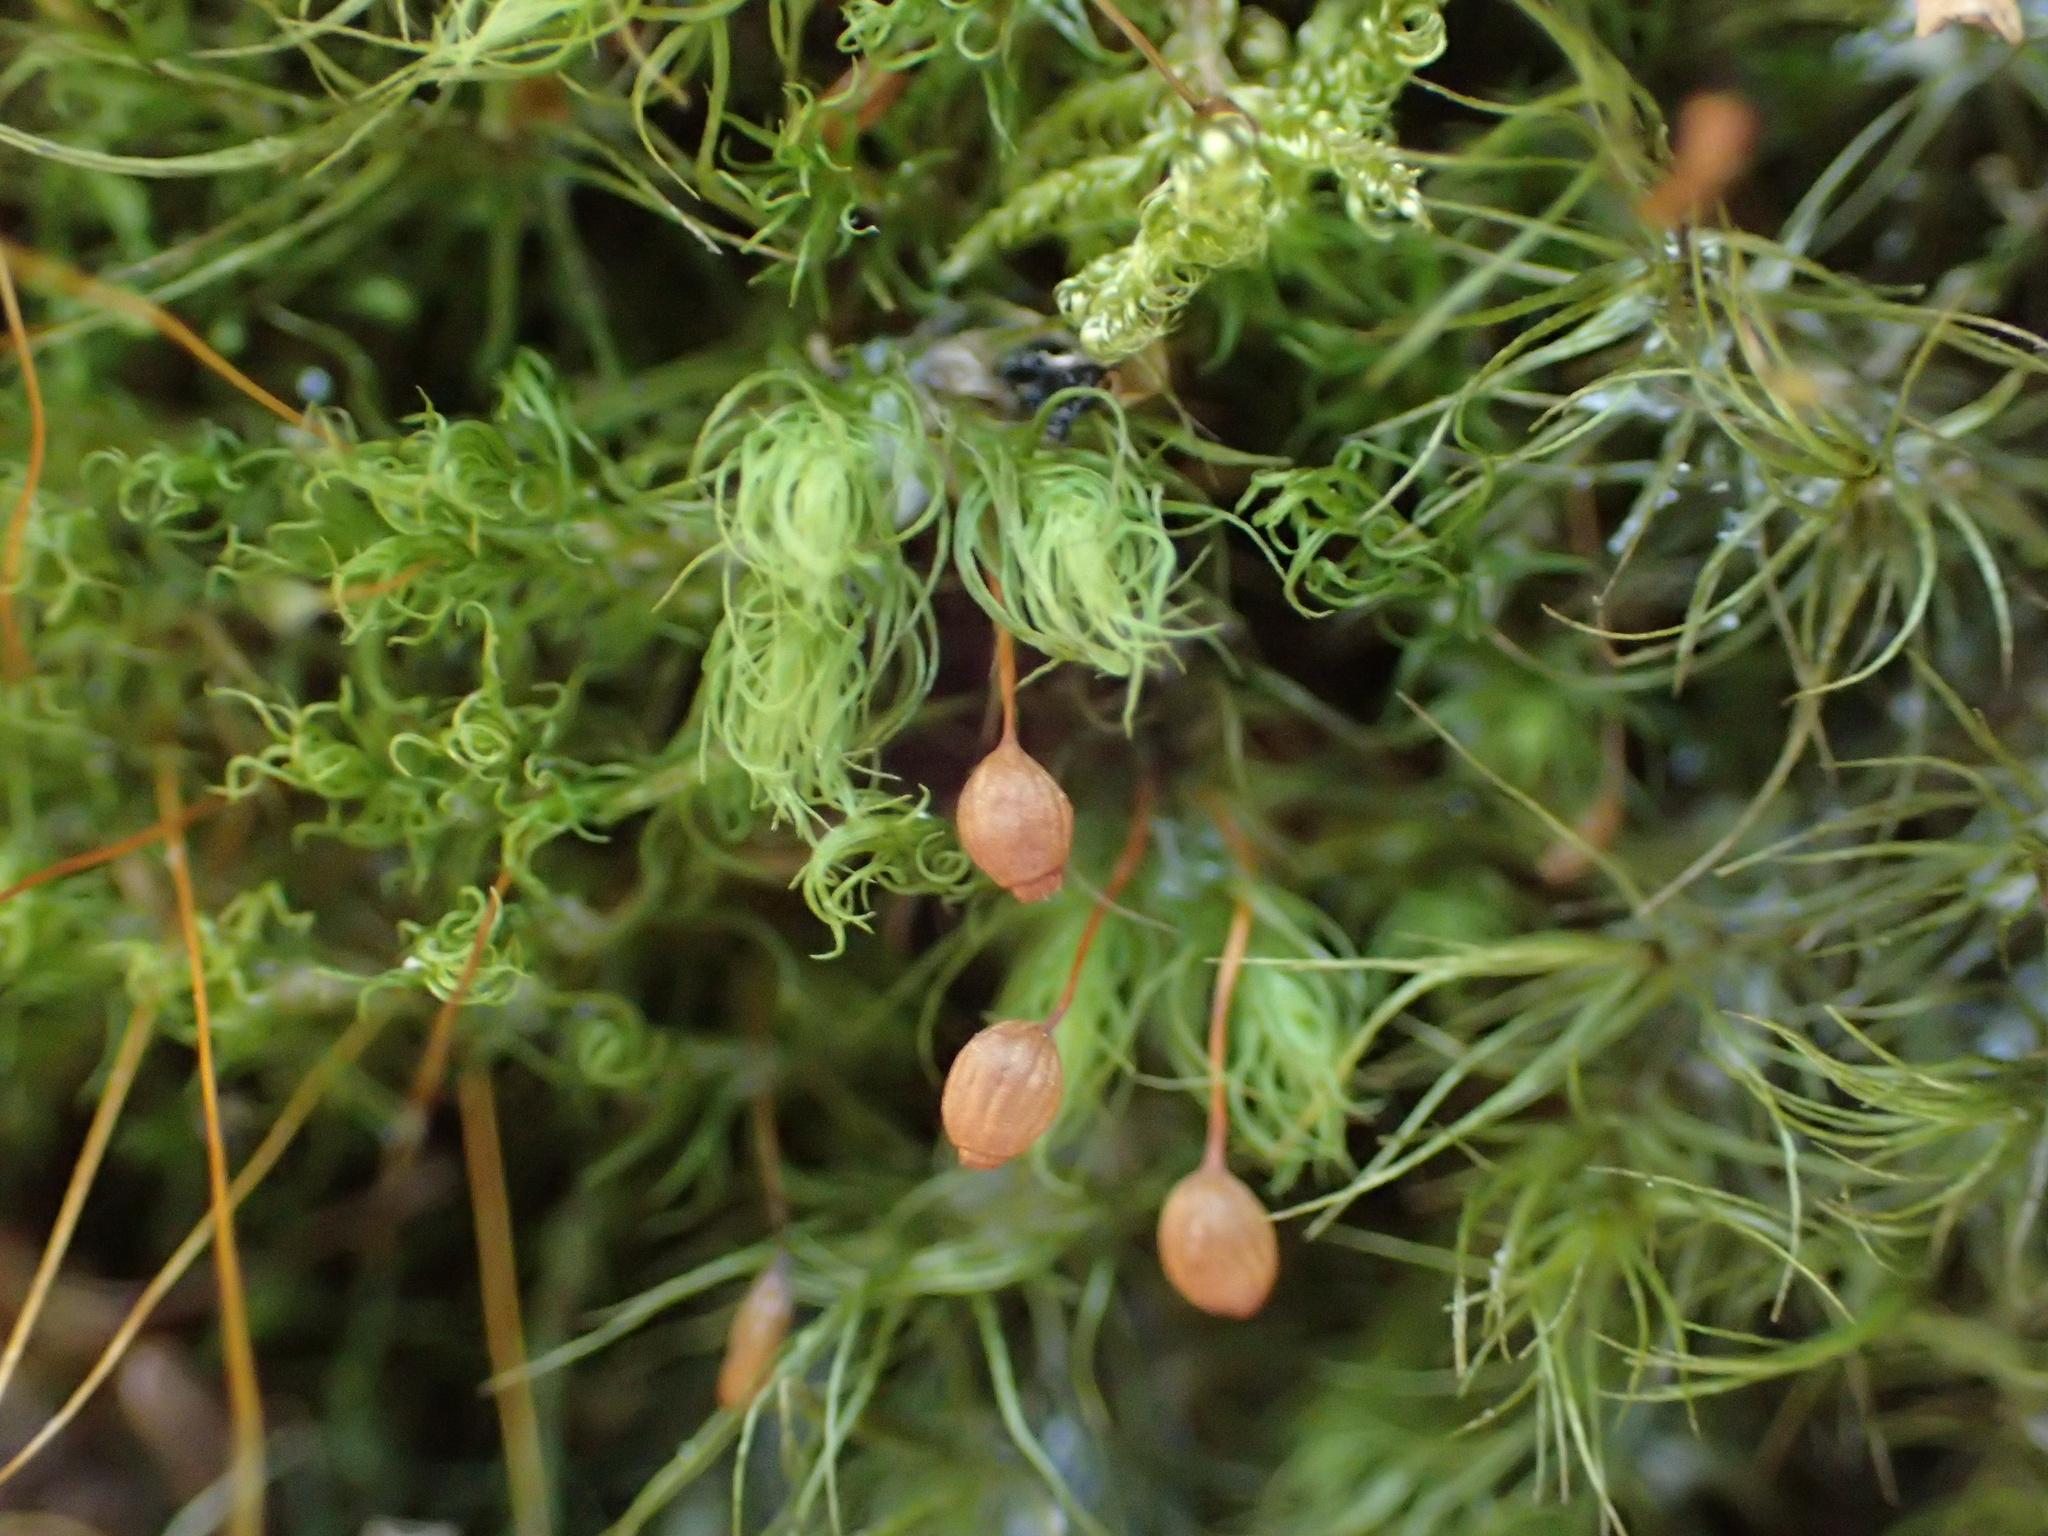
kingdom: Plantae
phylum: Bryophyta
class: Bryopsida
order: Bartramiales
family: Bartramiaceae
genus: Bartramia
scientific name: Bartramia ithyphylla
